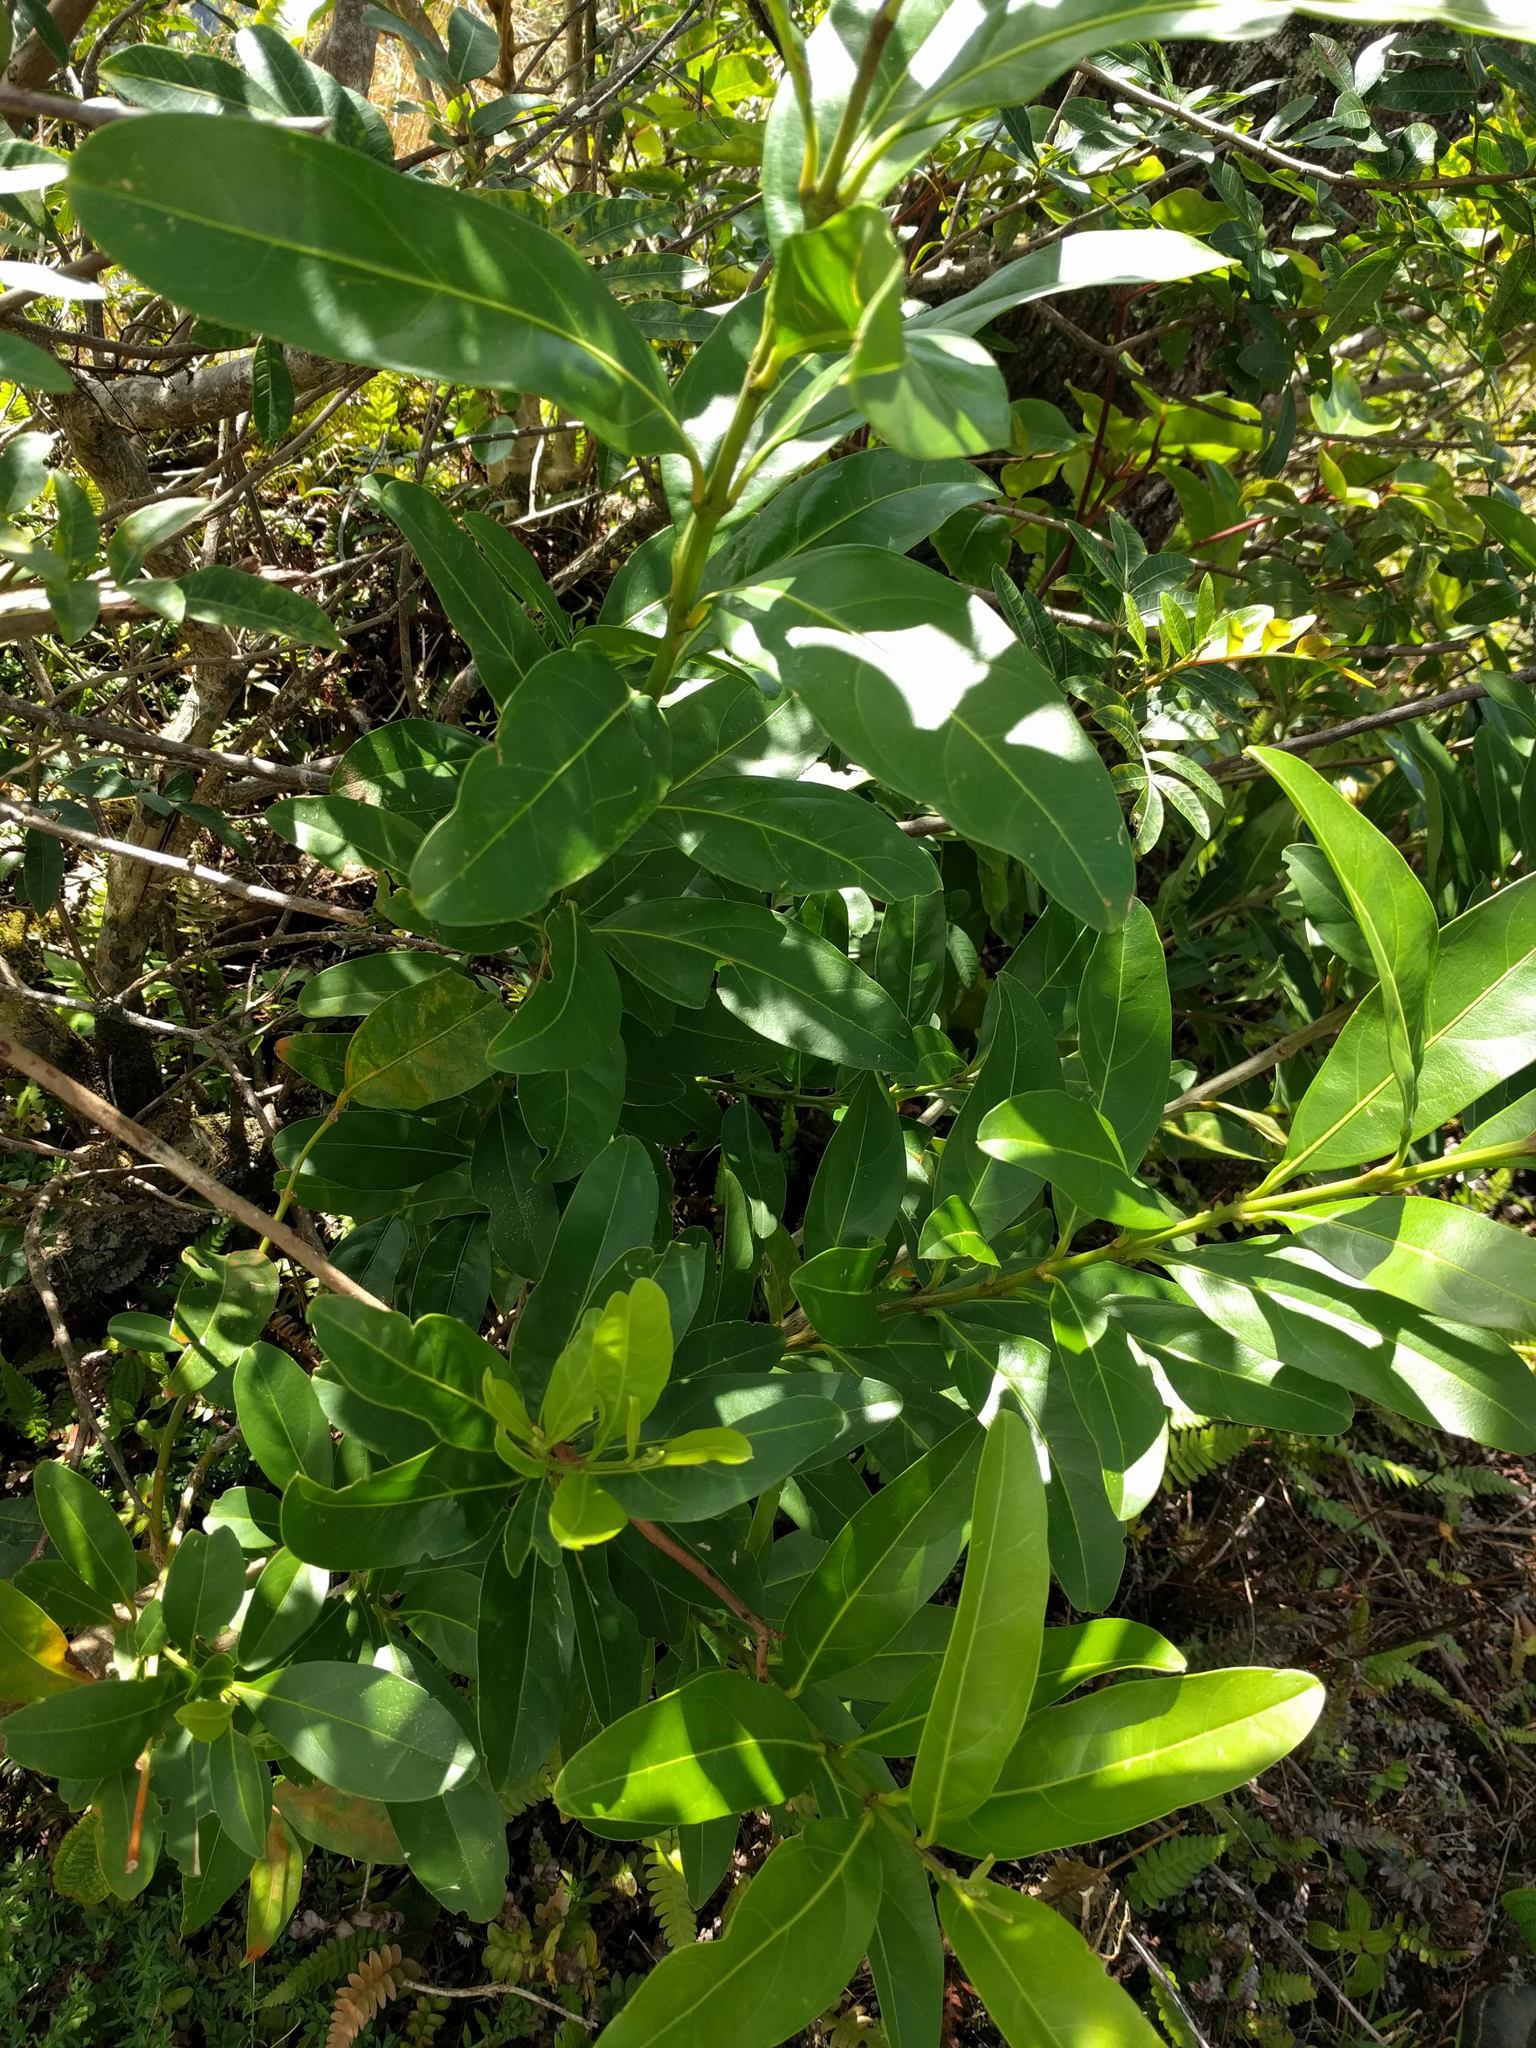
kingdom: Plantae
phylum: Tracheophyta
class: Magnoliopsida
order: Lamiales
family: Verbenaceae
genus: Citharexylum
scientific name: Citharexylum caudatum
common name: Fiddlewood
